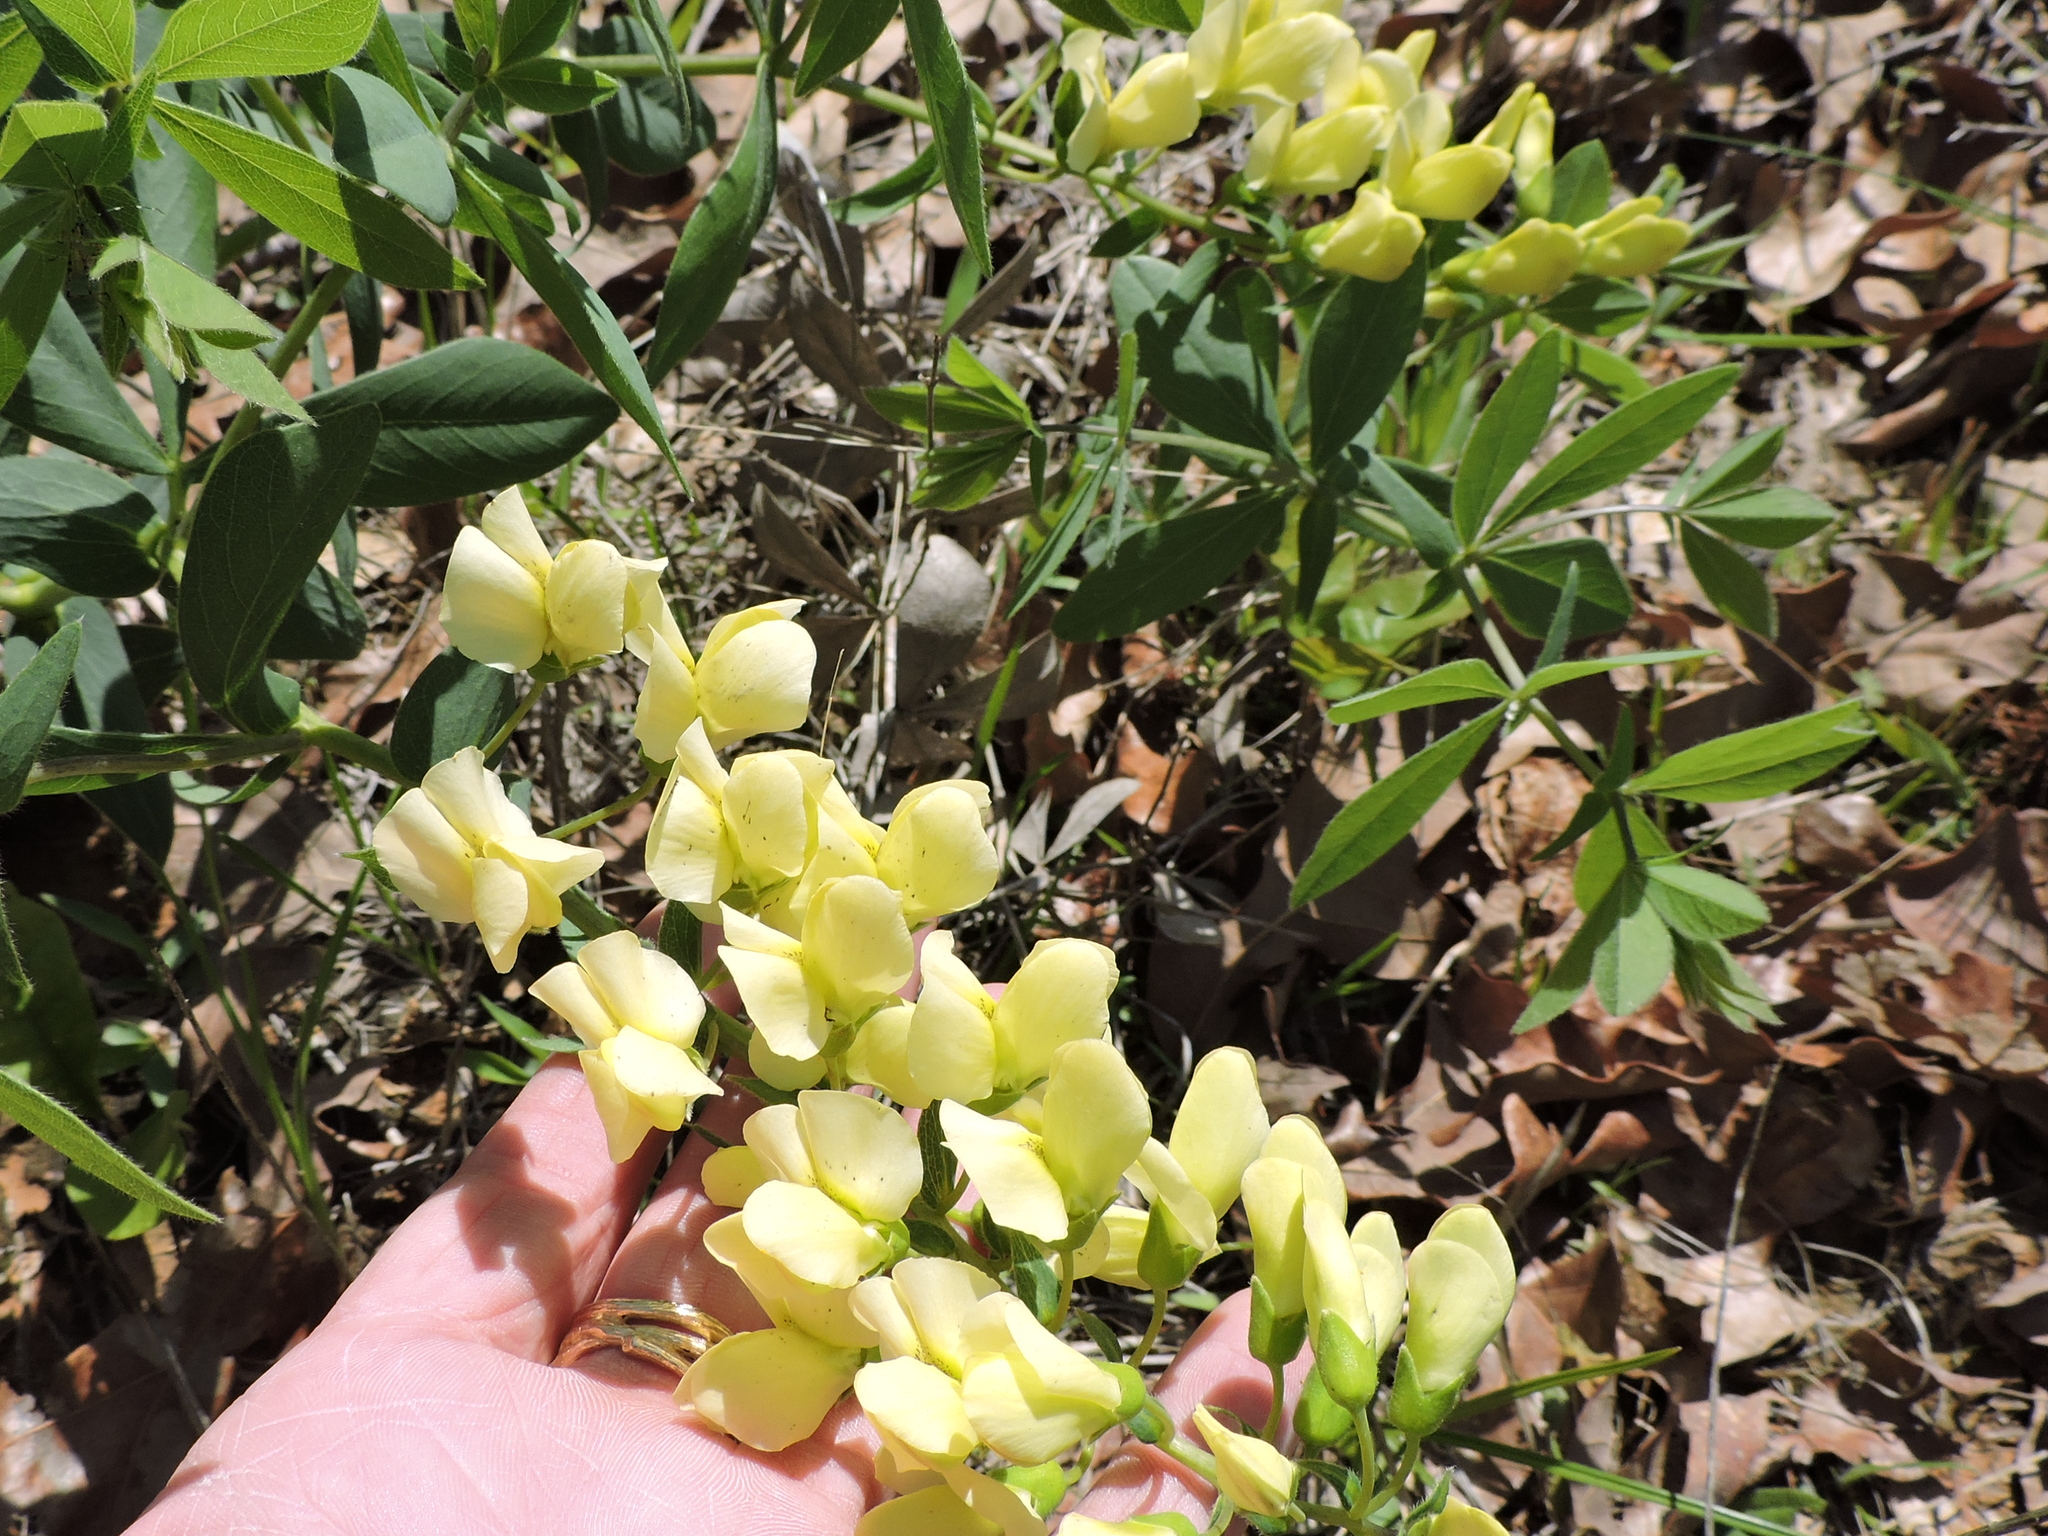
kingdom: Plantae
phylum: Tracheophyta
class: Magnoliopsida
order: Fabales
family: Fabaceae
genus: Baptisia
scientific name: Baptisia bracteata
